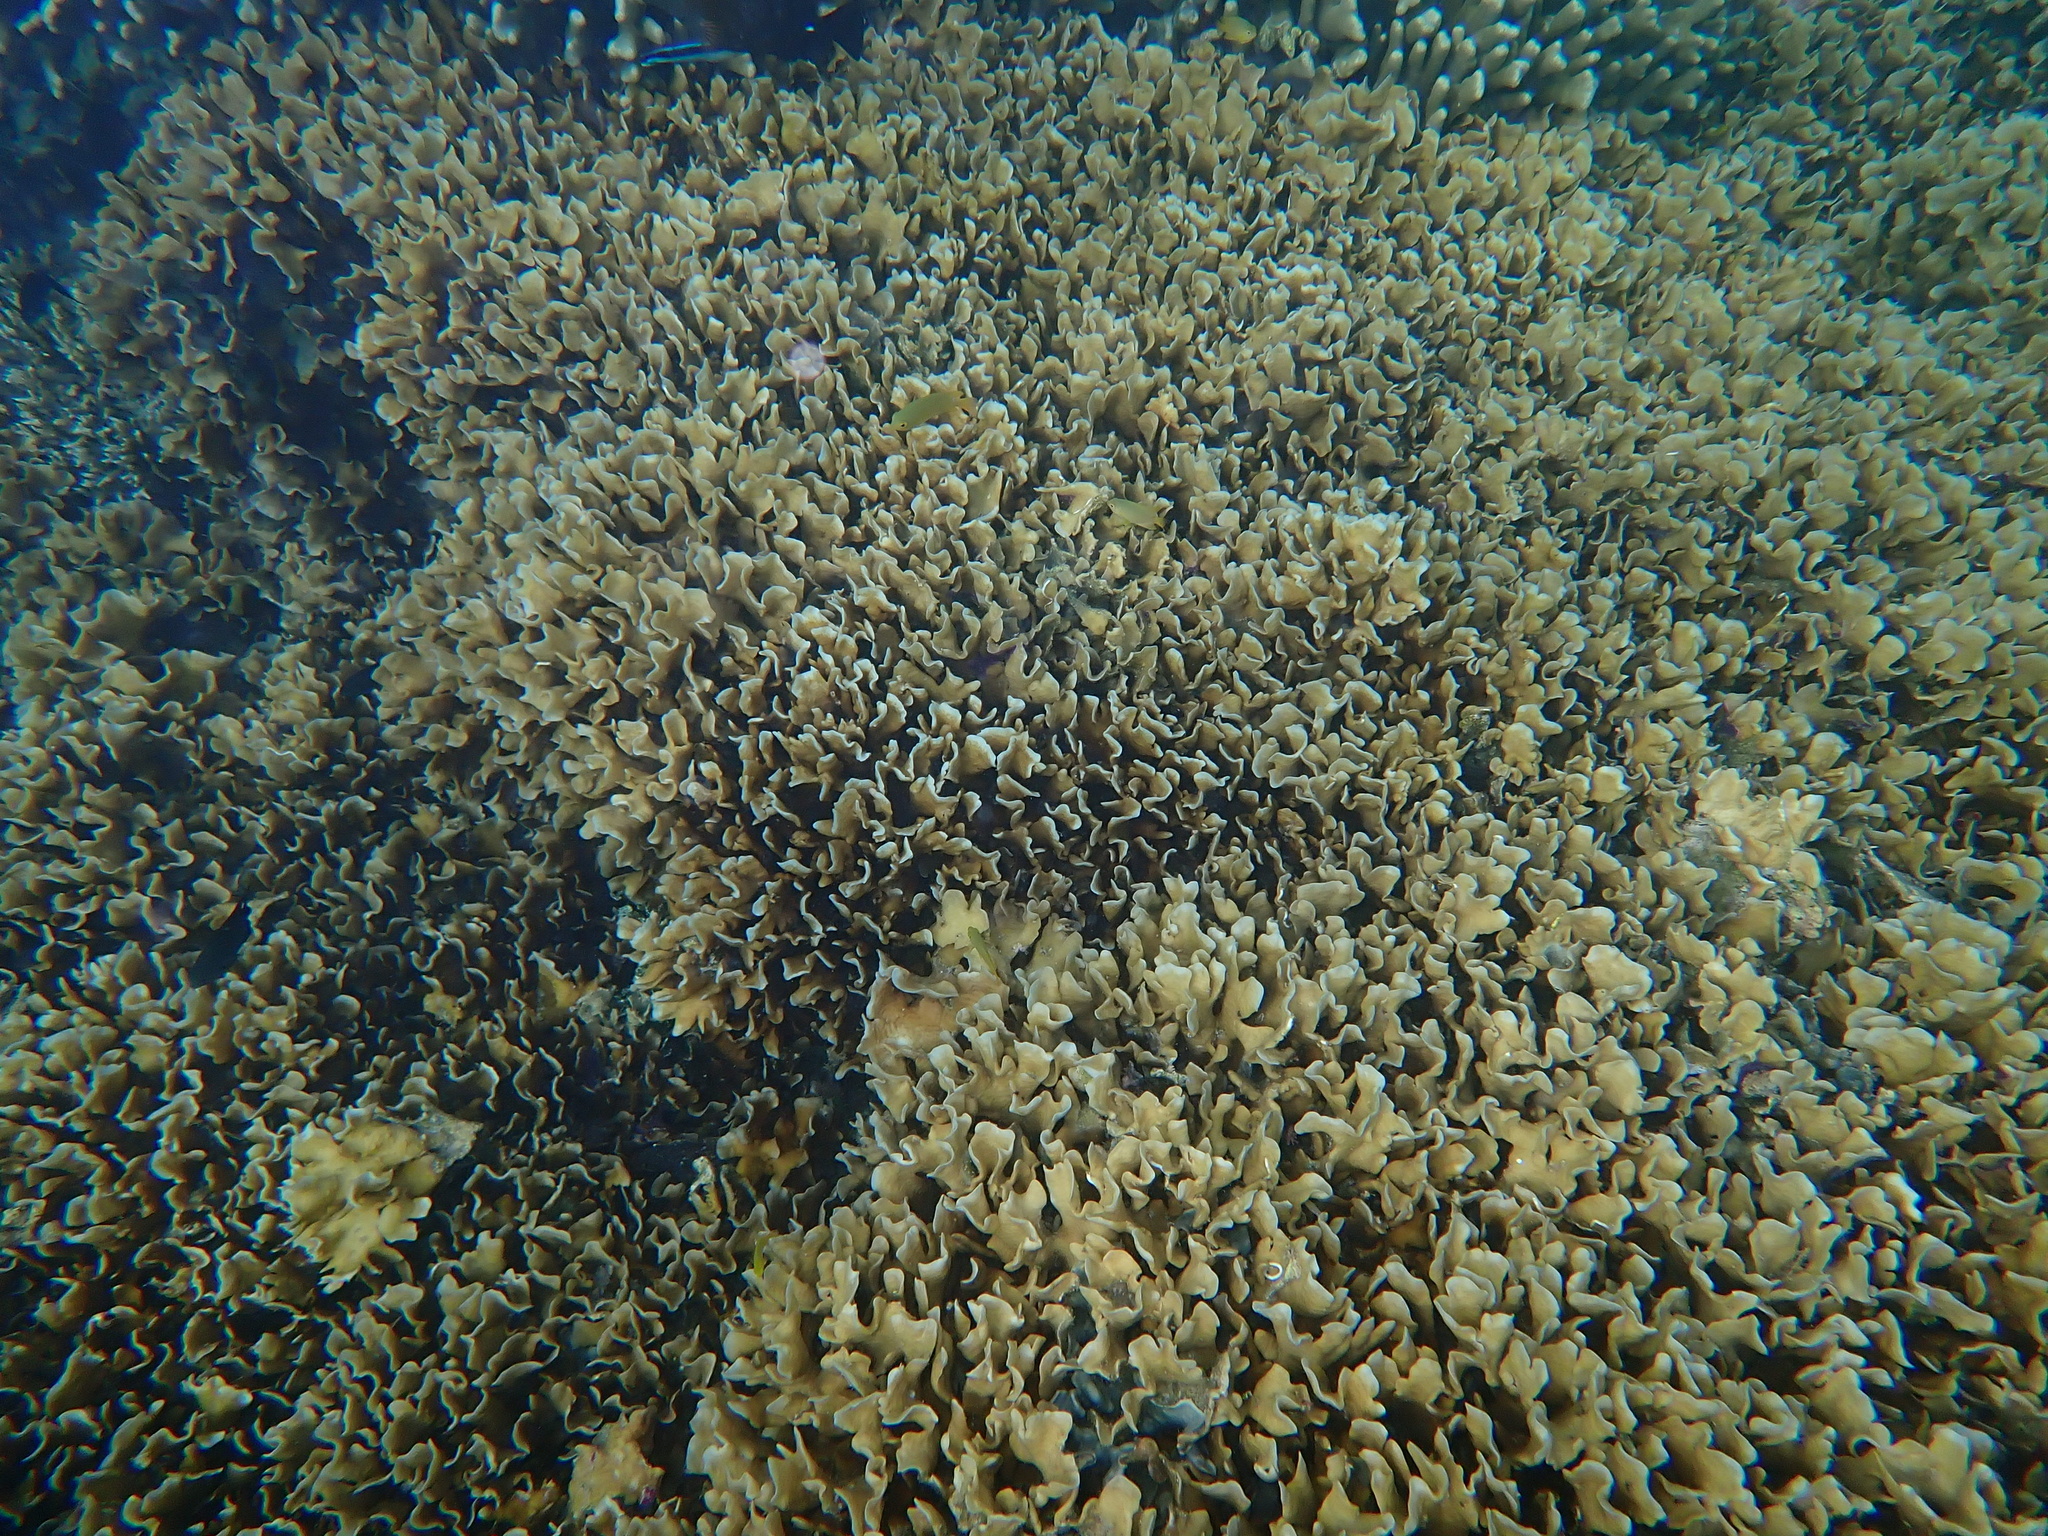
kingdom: Animalia
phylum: Cnidaria
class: Anthozoa
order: Scleractinia
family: Agariciidae
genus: Pavona
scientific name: Pavona cactus
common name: Leaf coral
